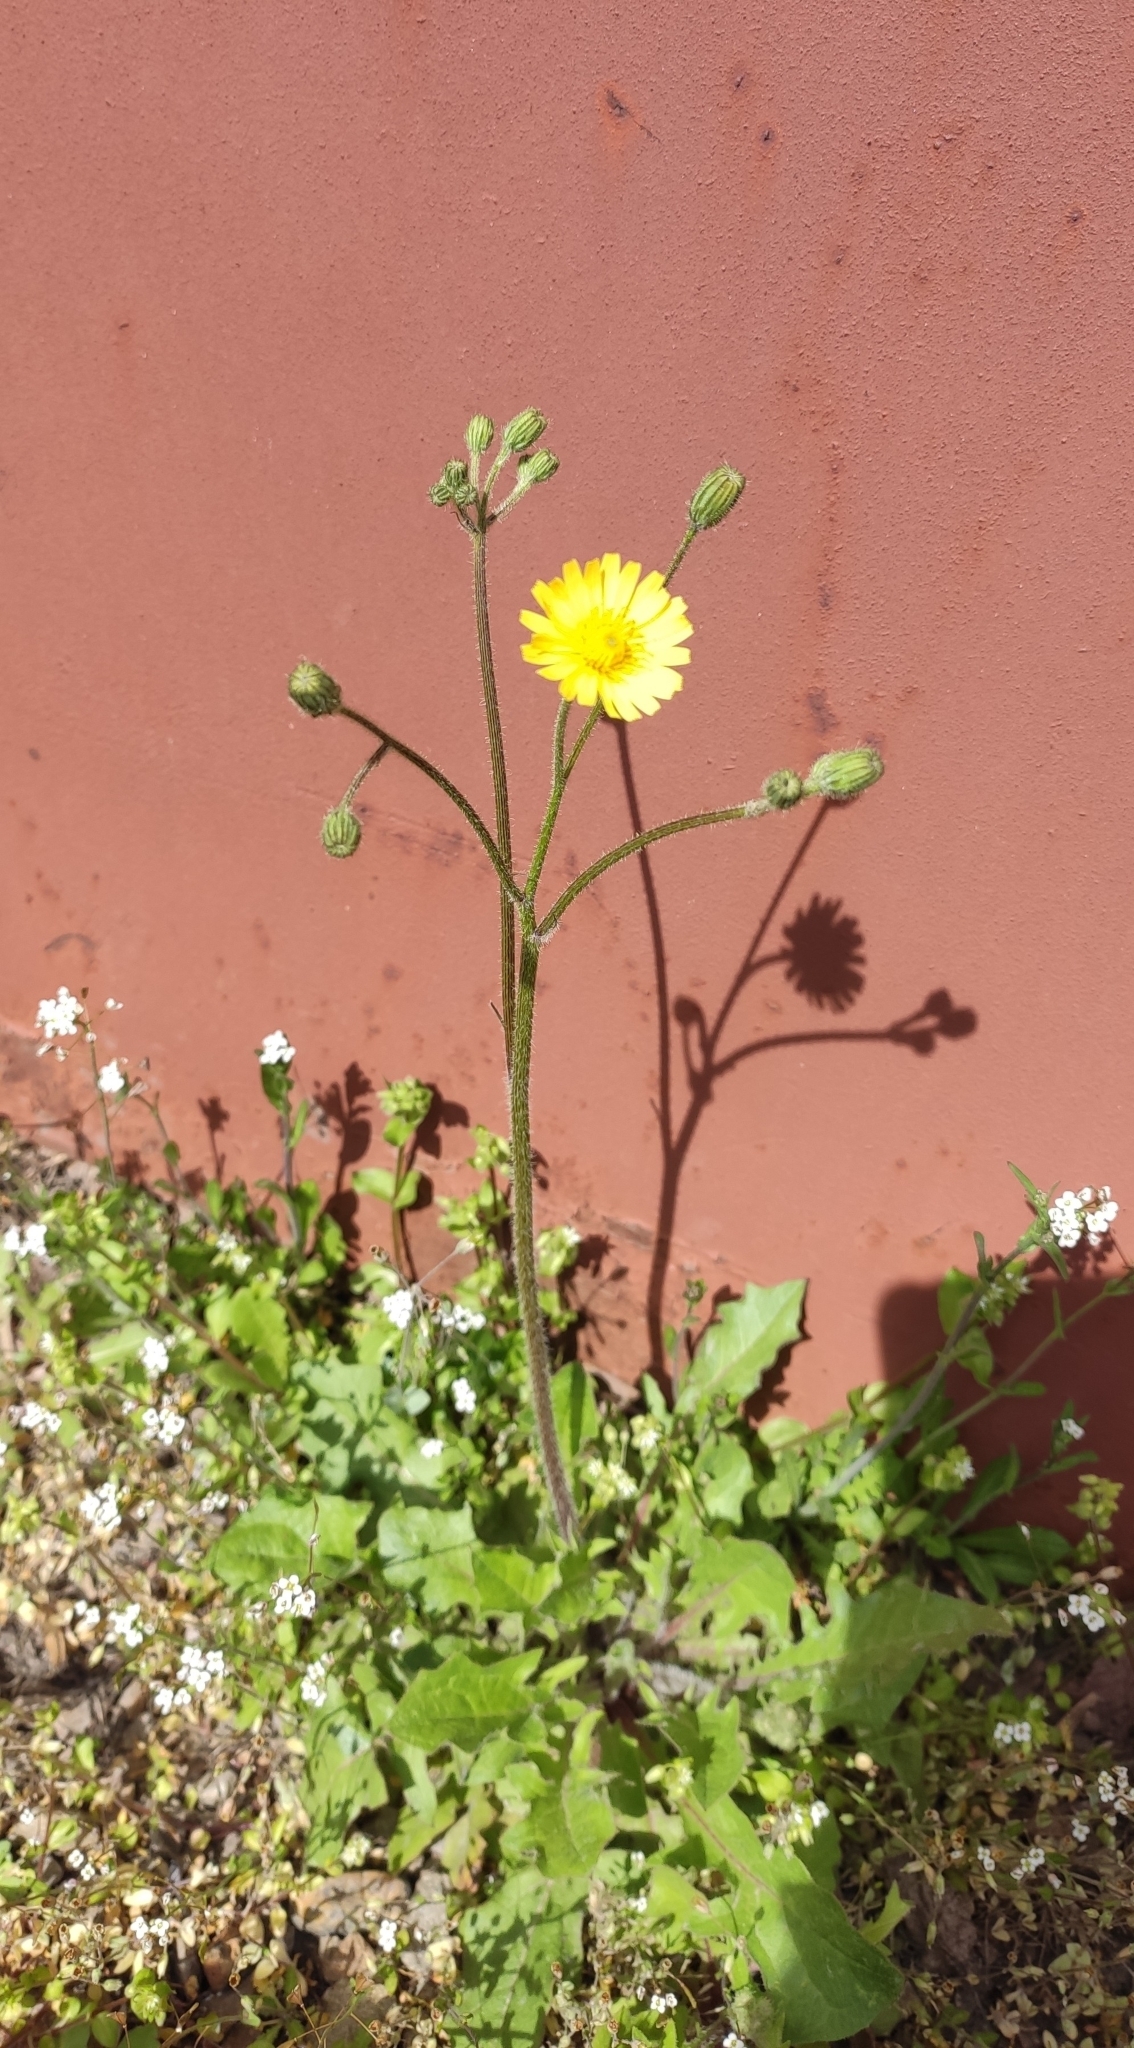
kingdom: Plantae
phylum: Tracheophyta
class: Magnoliopsida
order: Asterales
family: Asteraceae
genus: Crepis
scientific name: Crepis sancta
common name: Hawk's-beard
